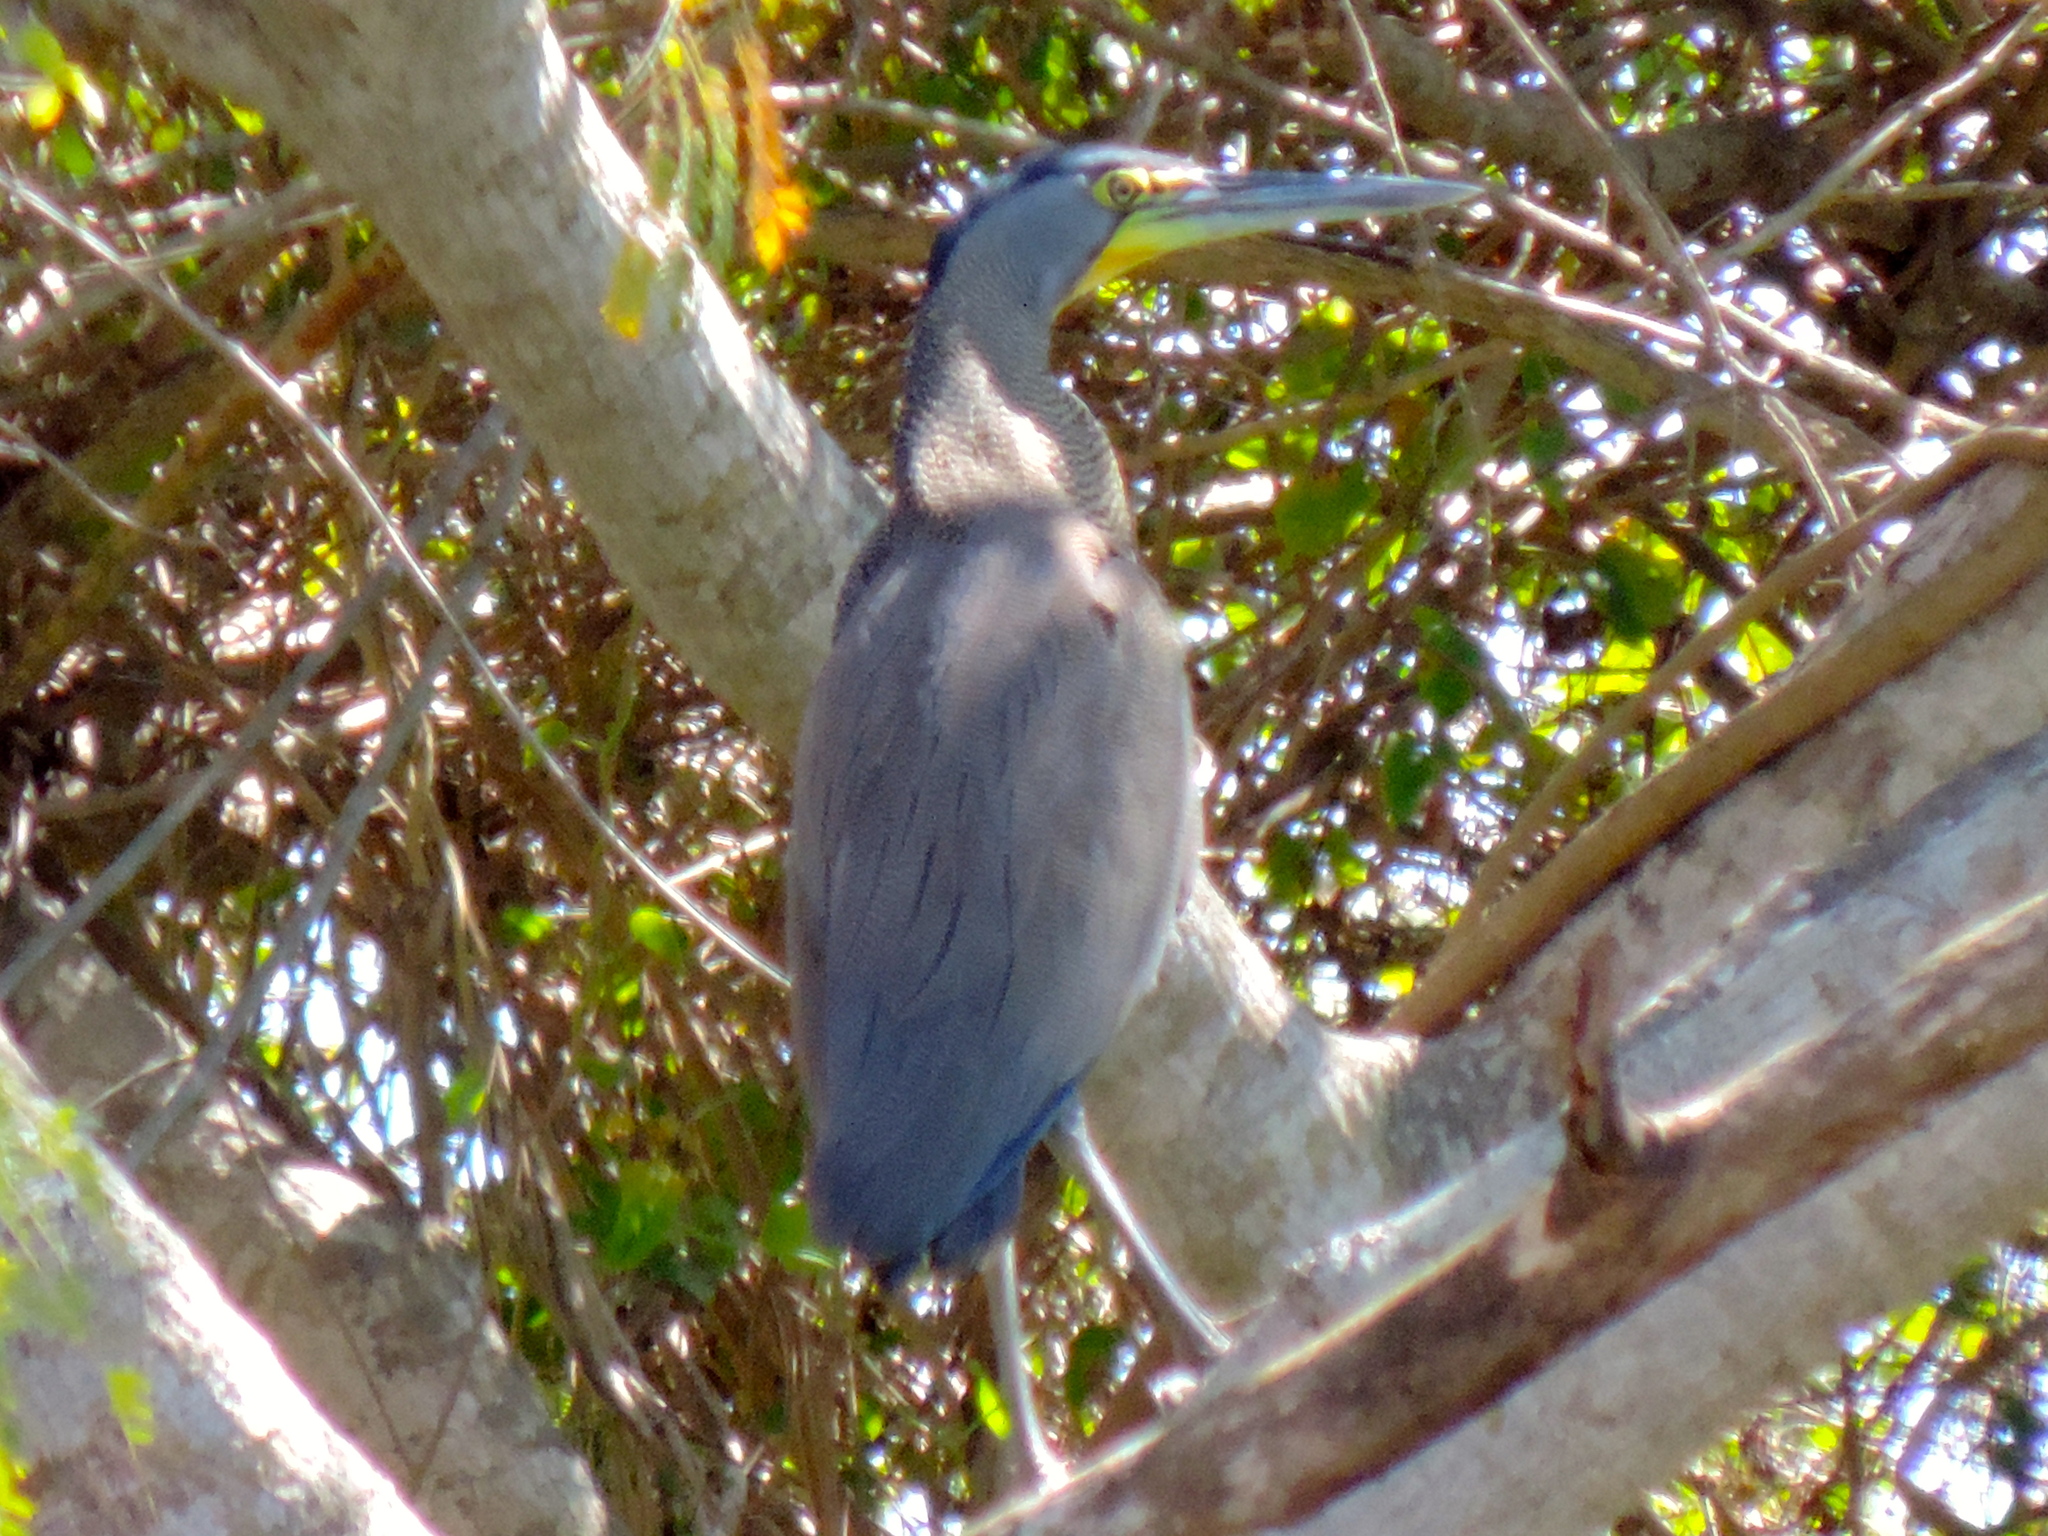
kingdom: Animalia
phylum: Chordata
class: Aves
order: Pelecaniformes
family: Ardeidae
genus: Tigrisoma
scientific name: Tigrisoma mexicanum
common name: Bare-throated tiger-heron
